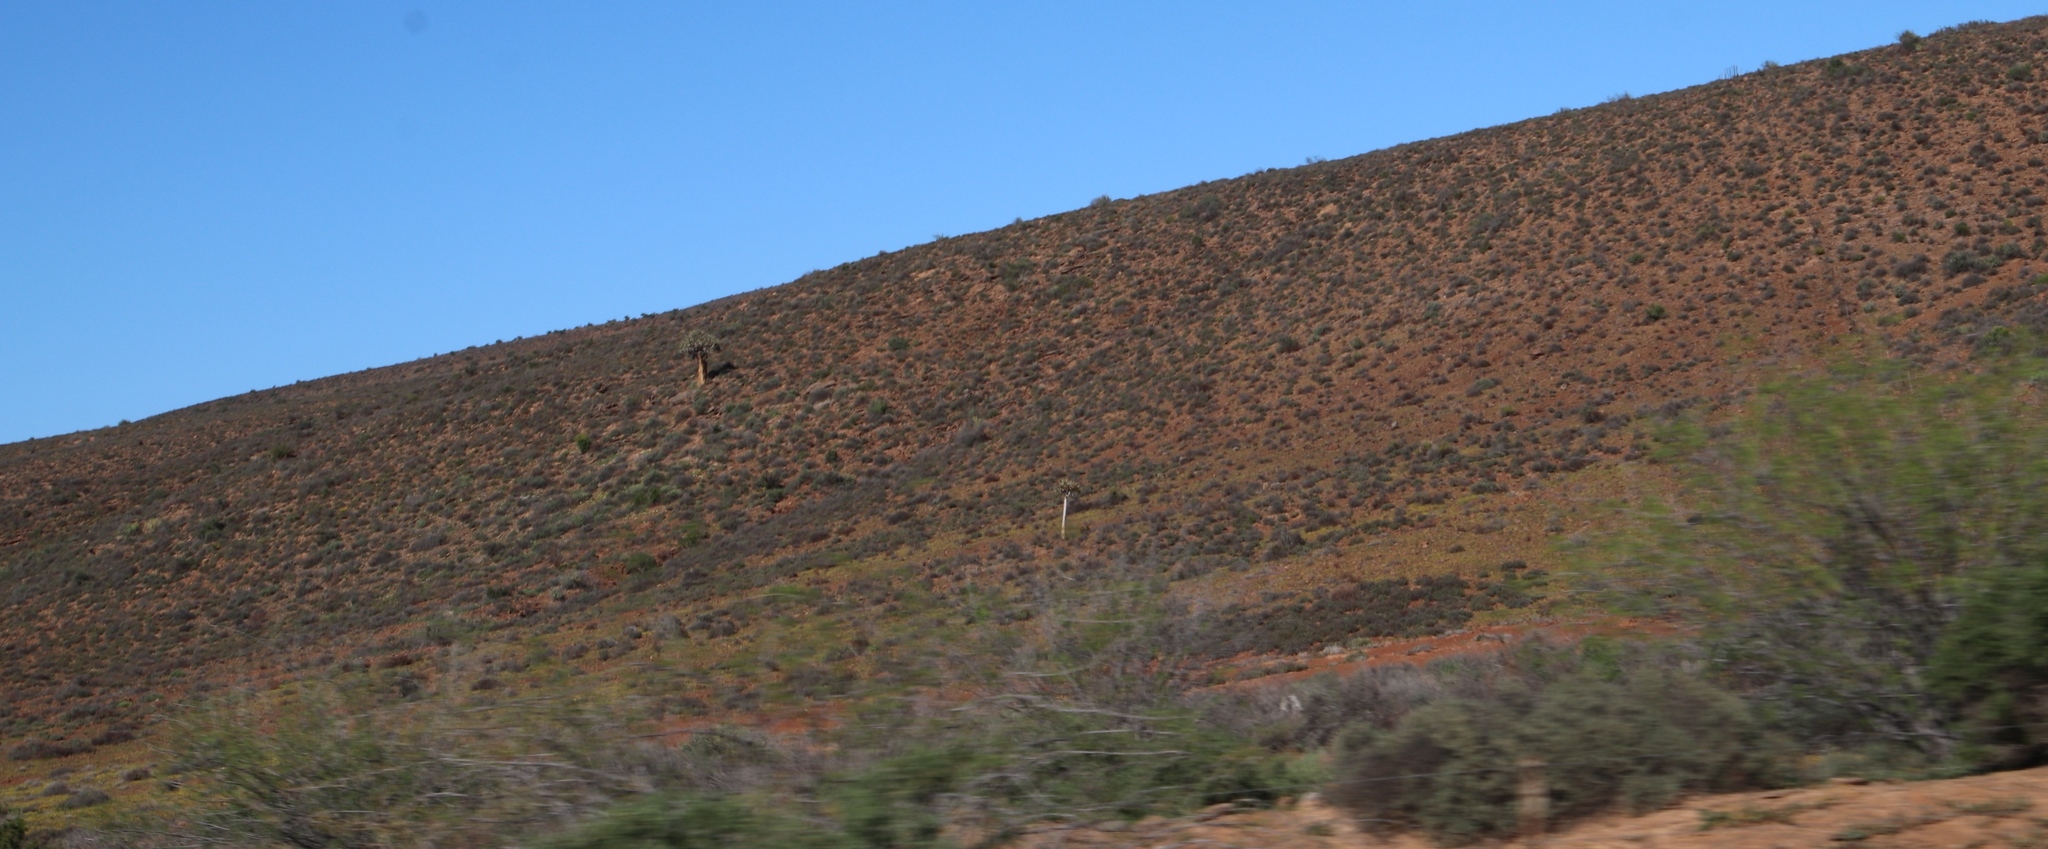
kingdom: Plantae
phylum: Tracheophyta
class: Liliopsida
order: Asparagales
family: Asphodelaceae
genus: Aloidendron
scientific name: Aloidendron dichotomum
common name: Quiver tree
